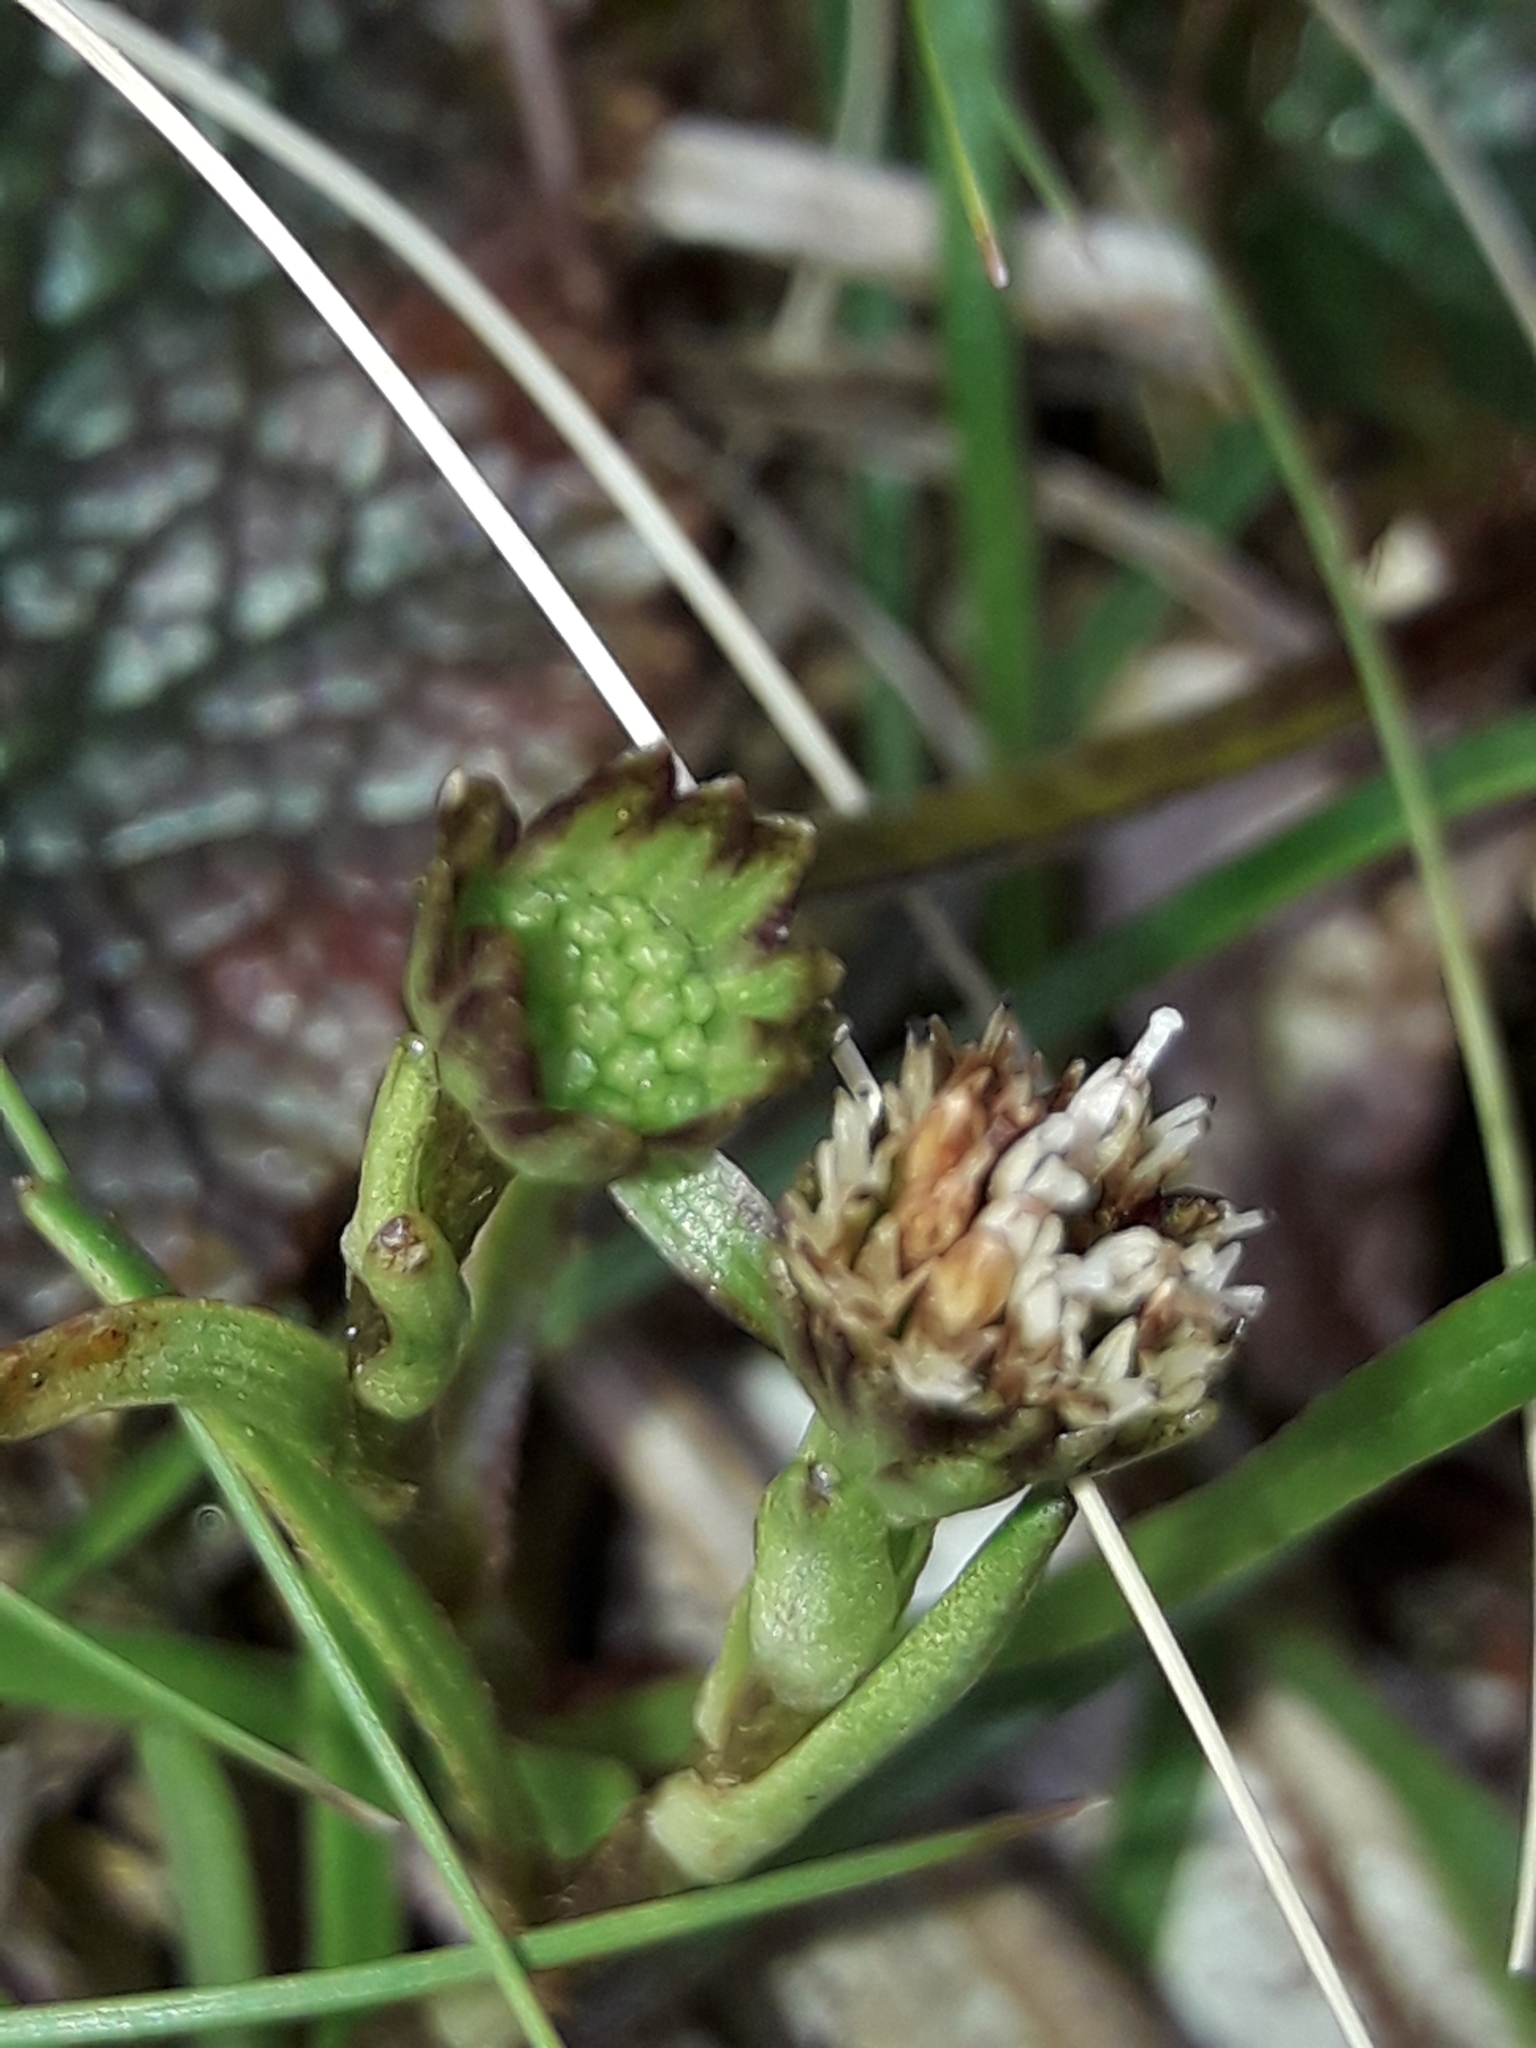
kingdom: Plantae
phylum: Tracheophyta
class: Magnoliopsida
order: Asterales
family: Asteraceae
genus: Abrotanella
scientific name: Abrotanella linearis
